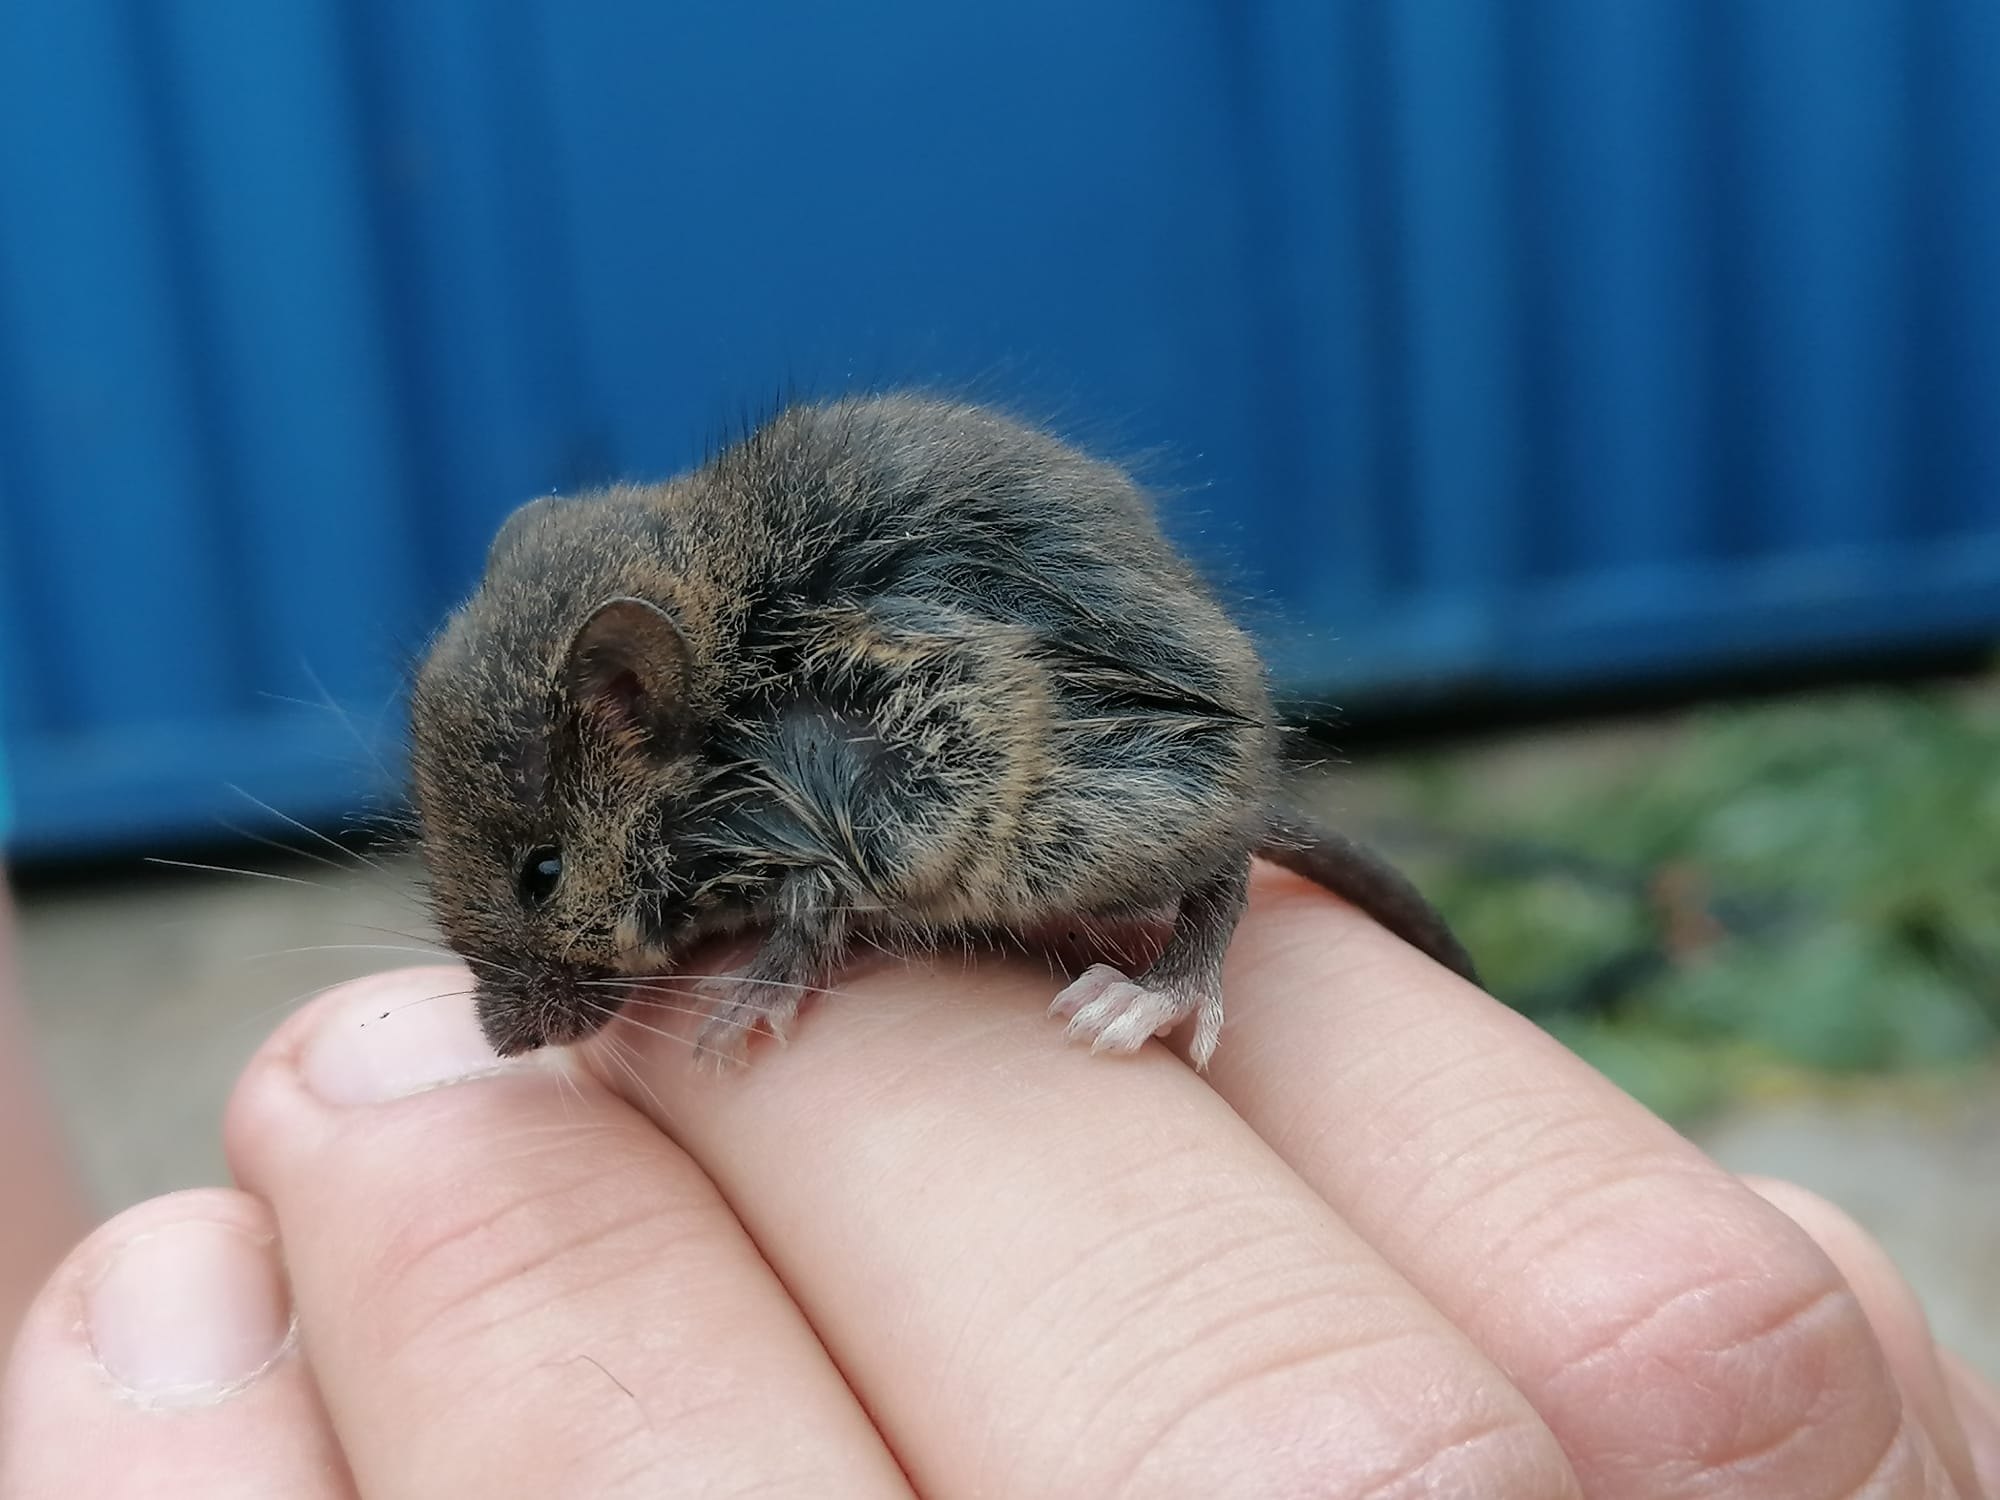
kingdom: Animalia
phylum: Chordata
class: Mammalia
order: Rodentia
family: Muridae
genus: Mus
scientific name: Mus musculus
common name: House mouse
